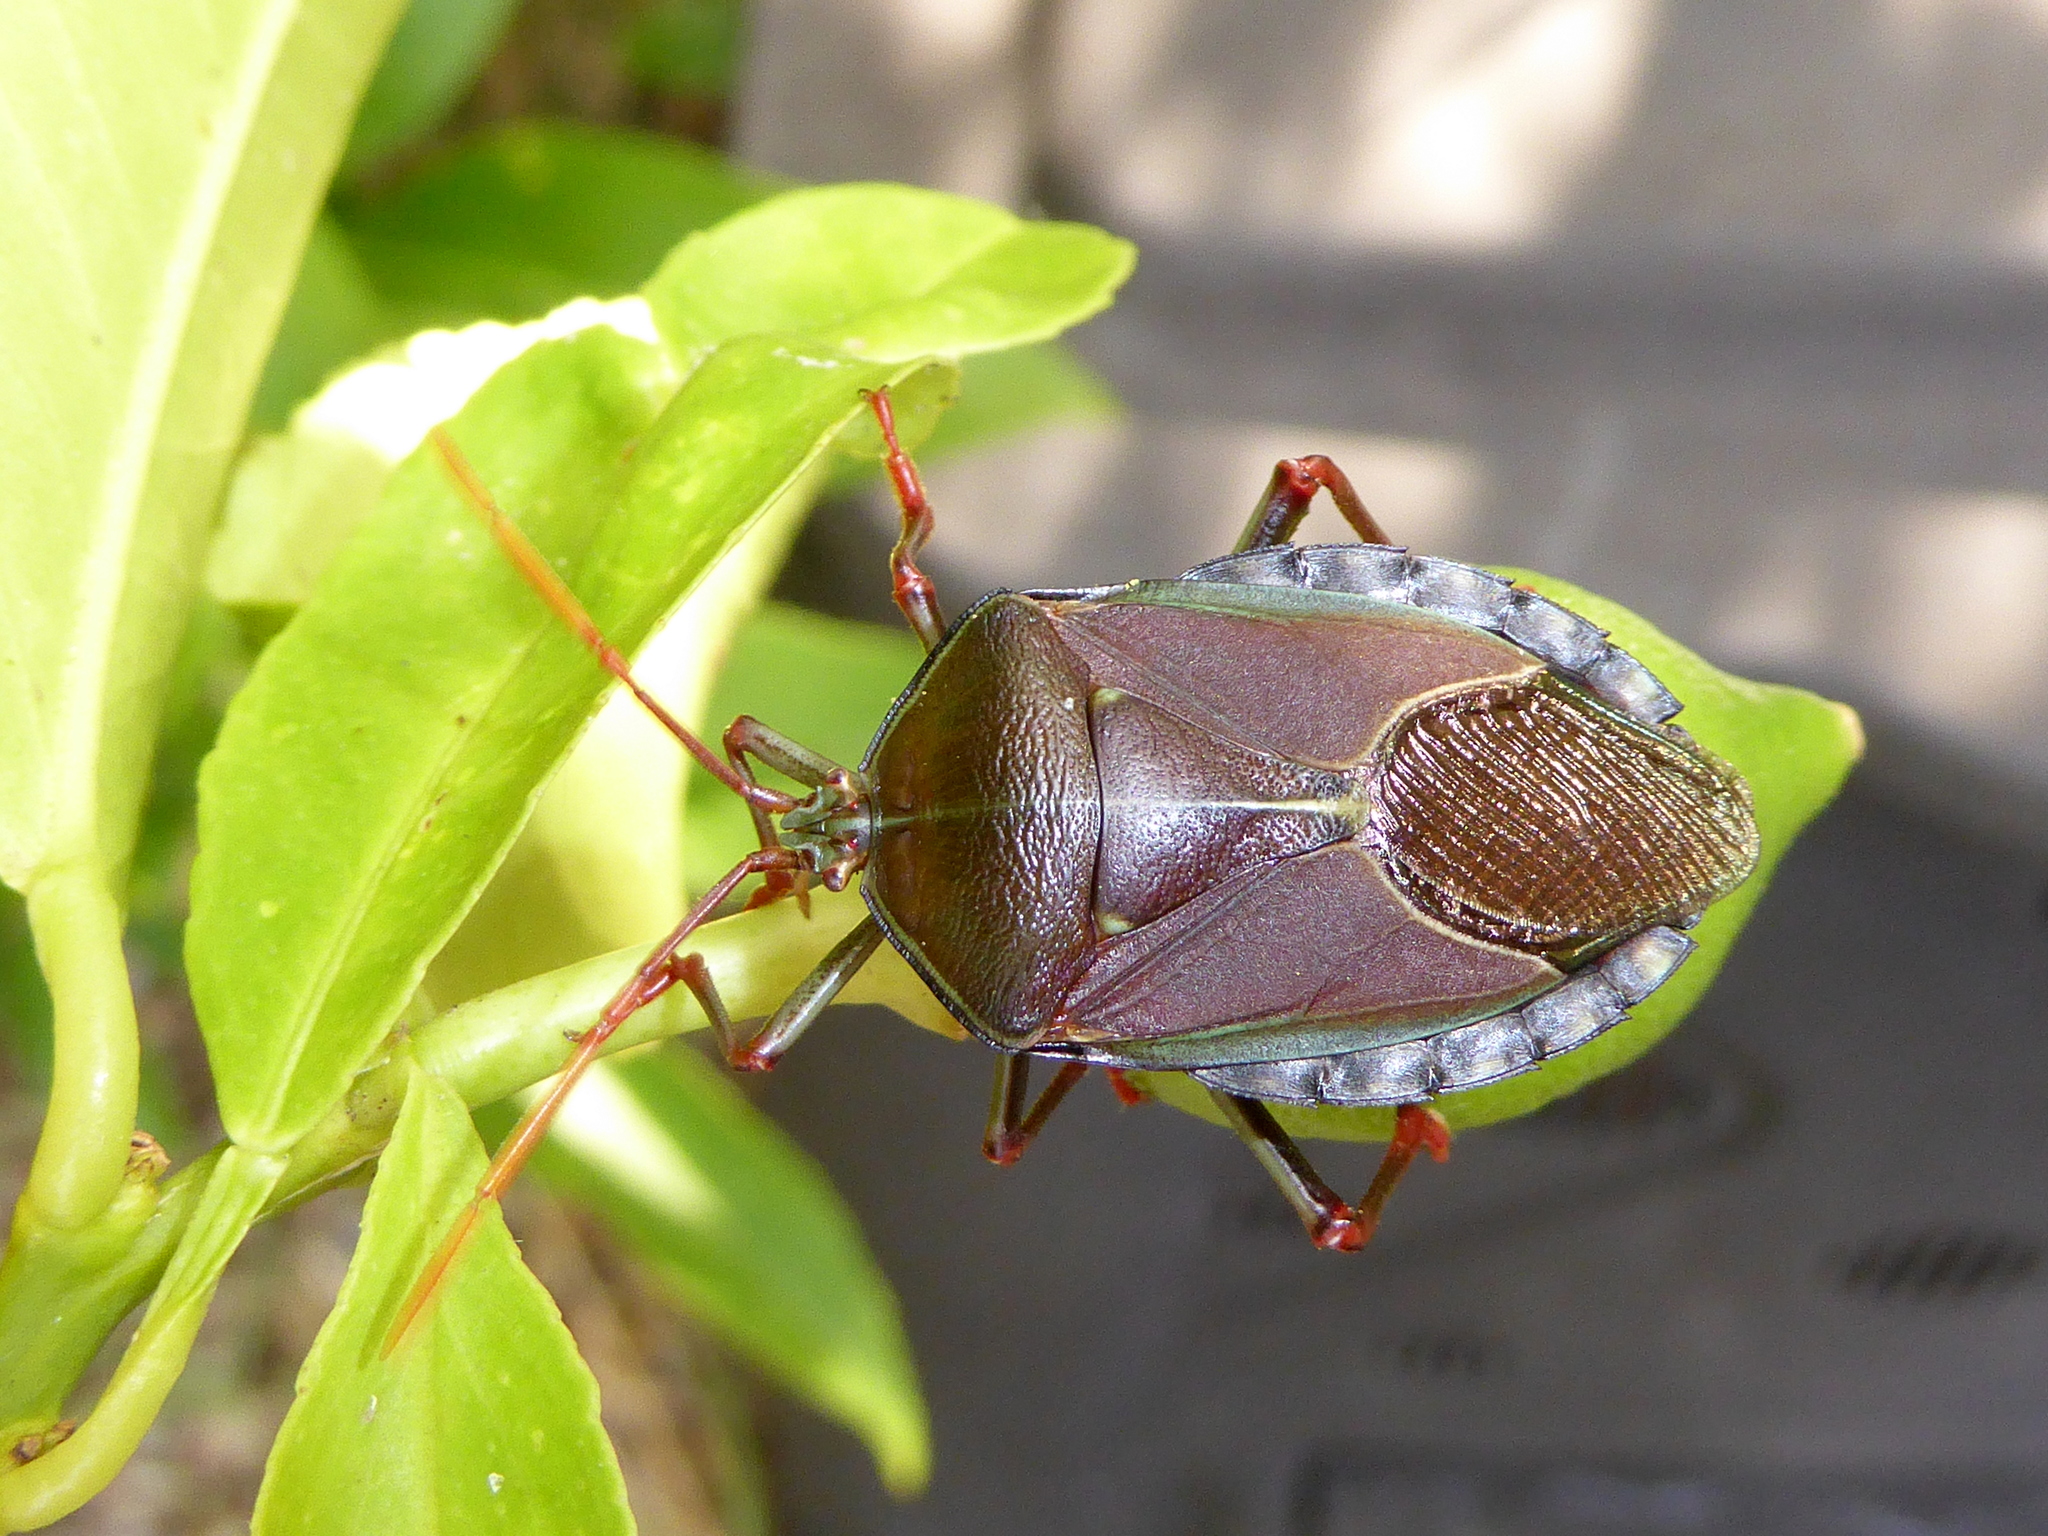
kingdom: Animalia
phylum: Arthropoda
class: Insecta
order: Hemiptera
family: Tessaratomidae
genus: Musgraveia
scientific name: Musgraveia sulciventris
